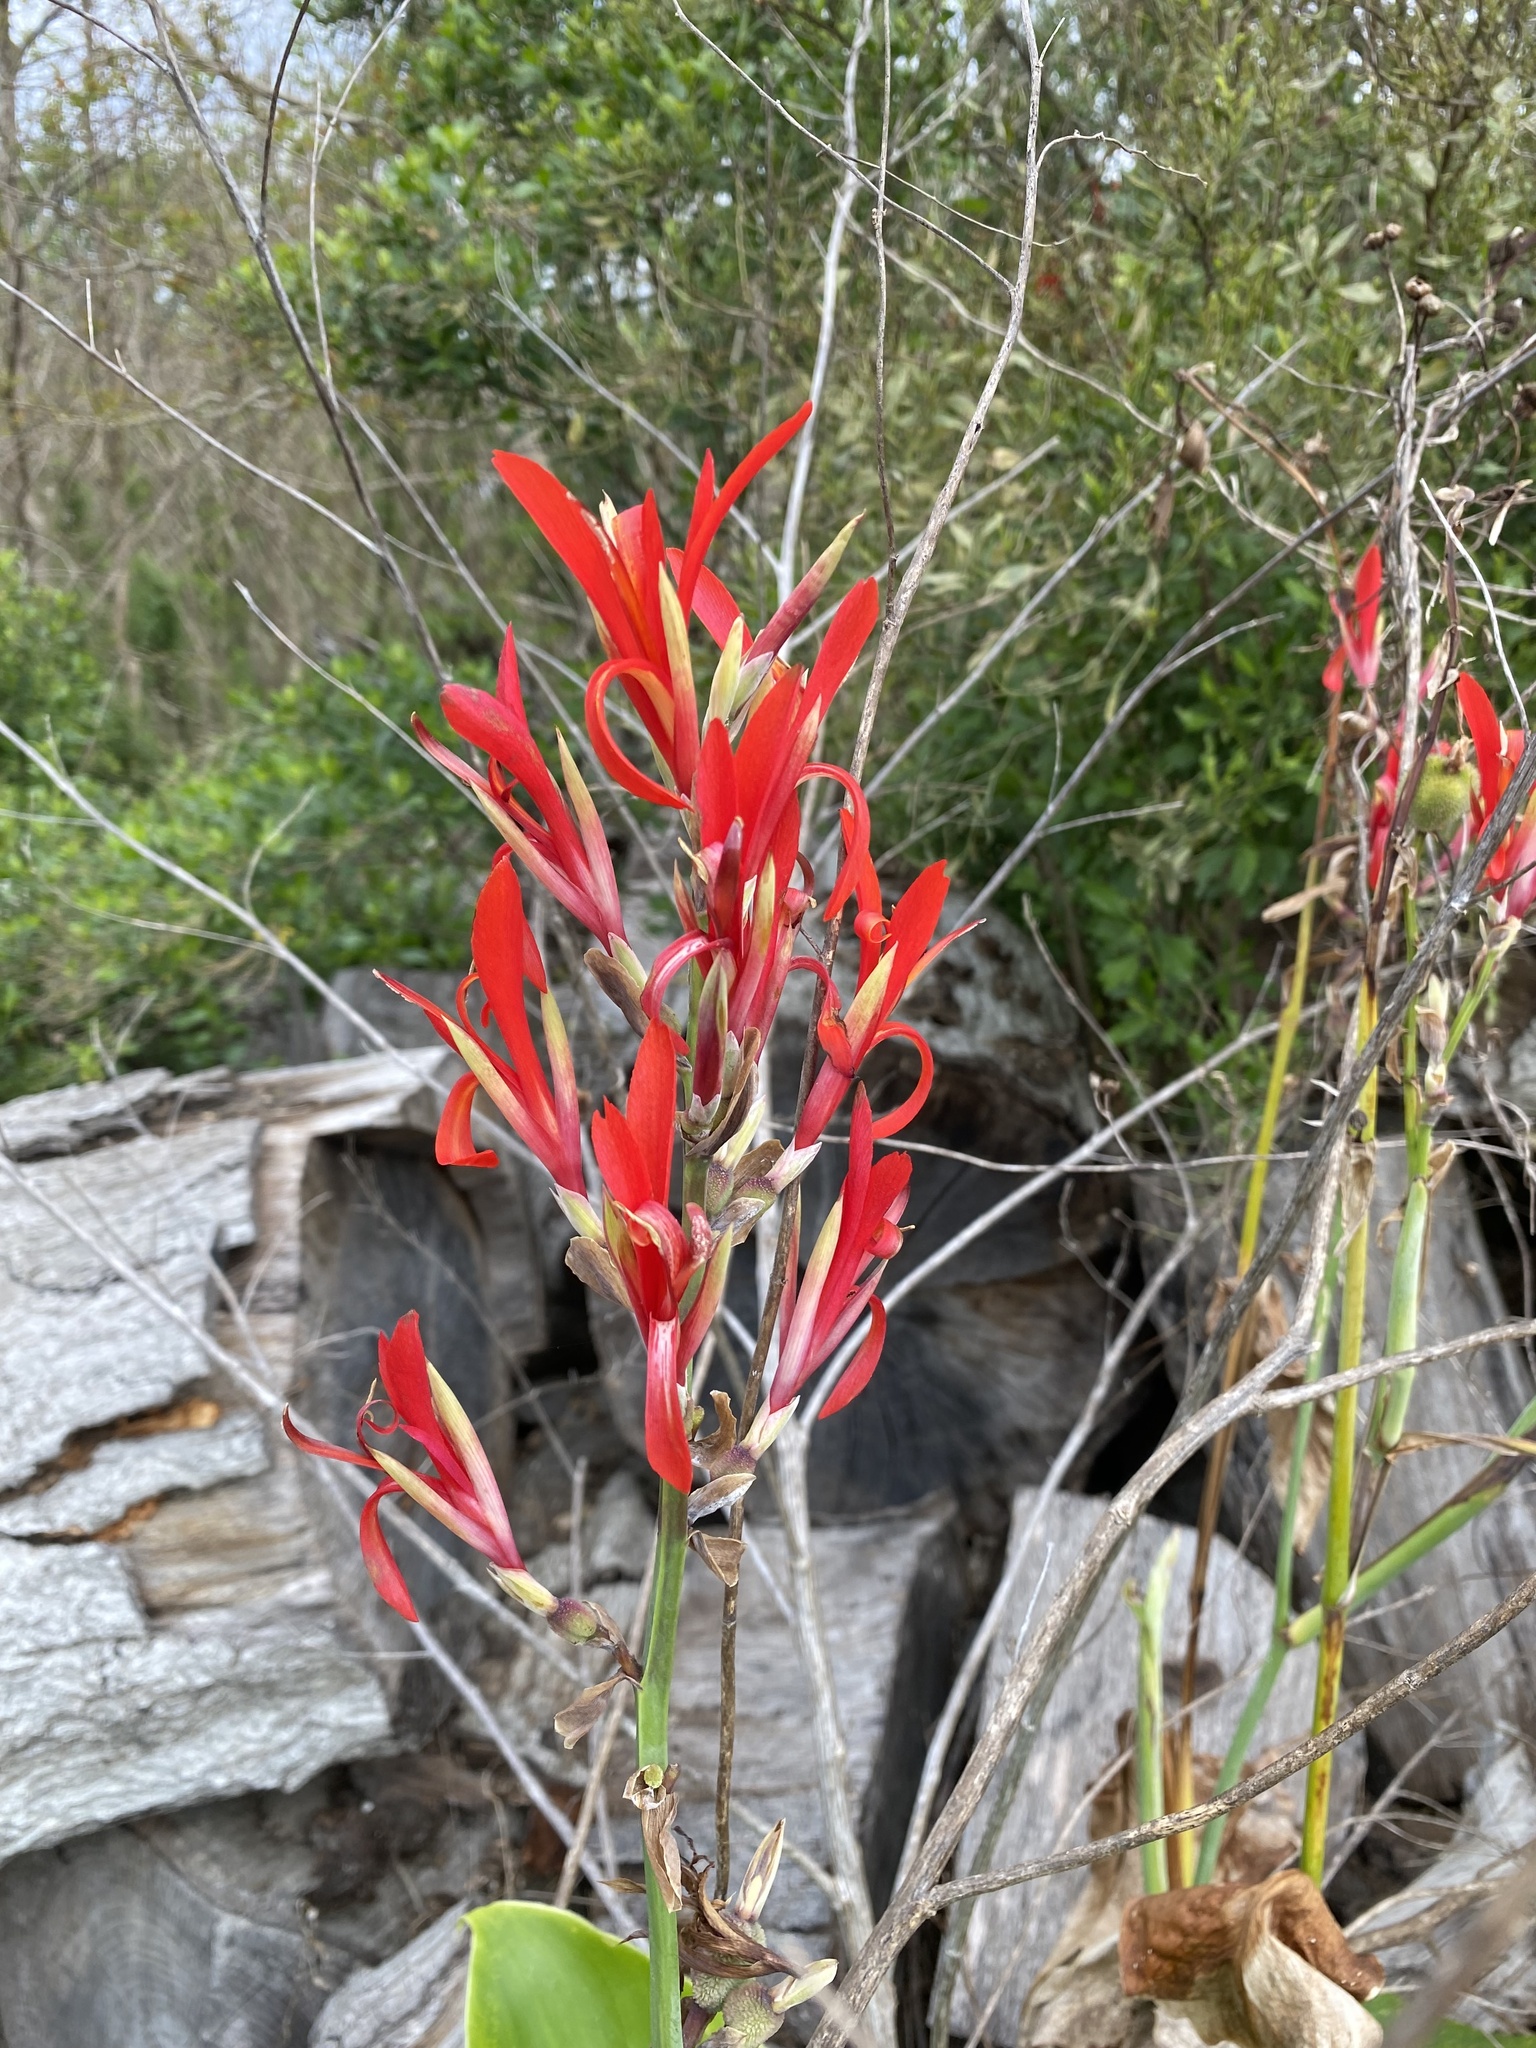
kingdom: Plantae
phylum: Tracheophyta
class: Liliopsida
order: Zingiberales
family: Cannaceae
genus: Canna
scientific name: Canna indica
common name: Indian shot
